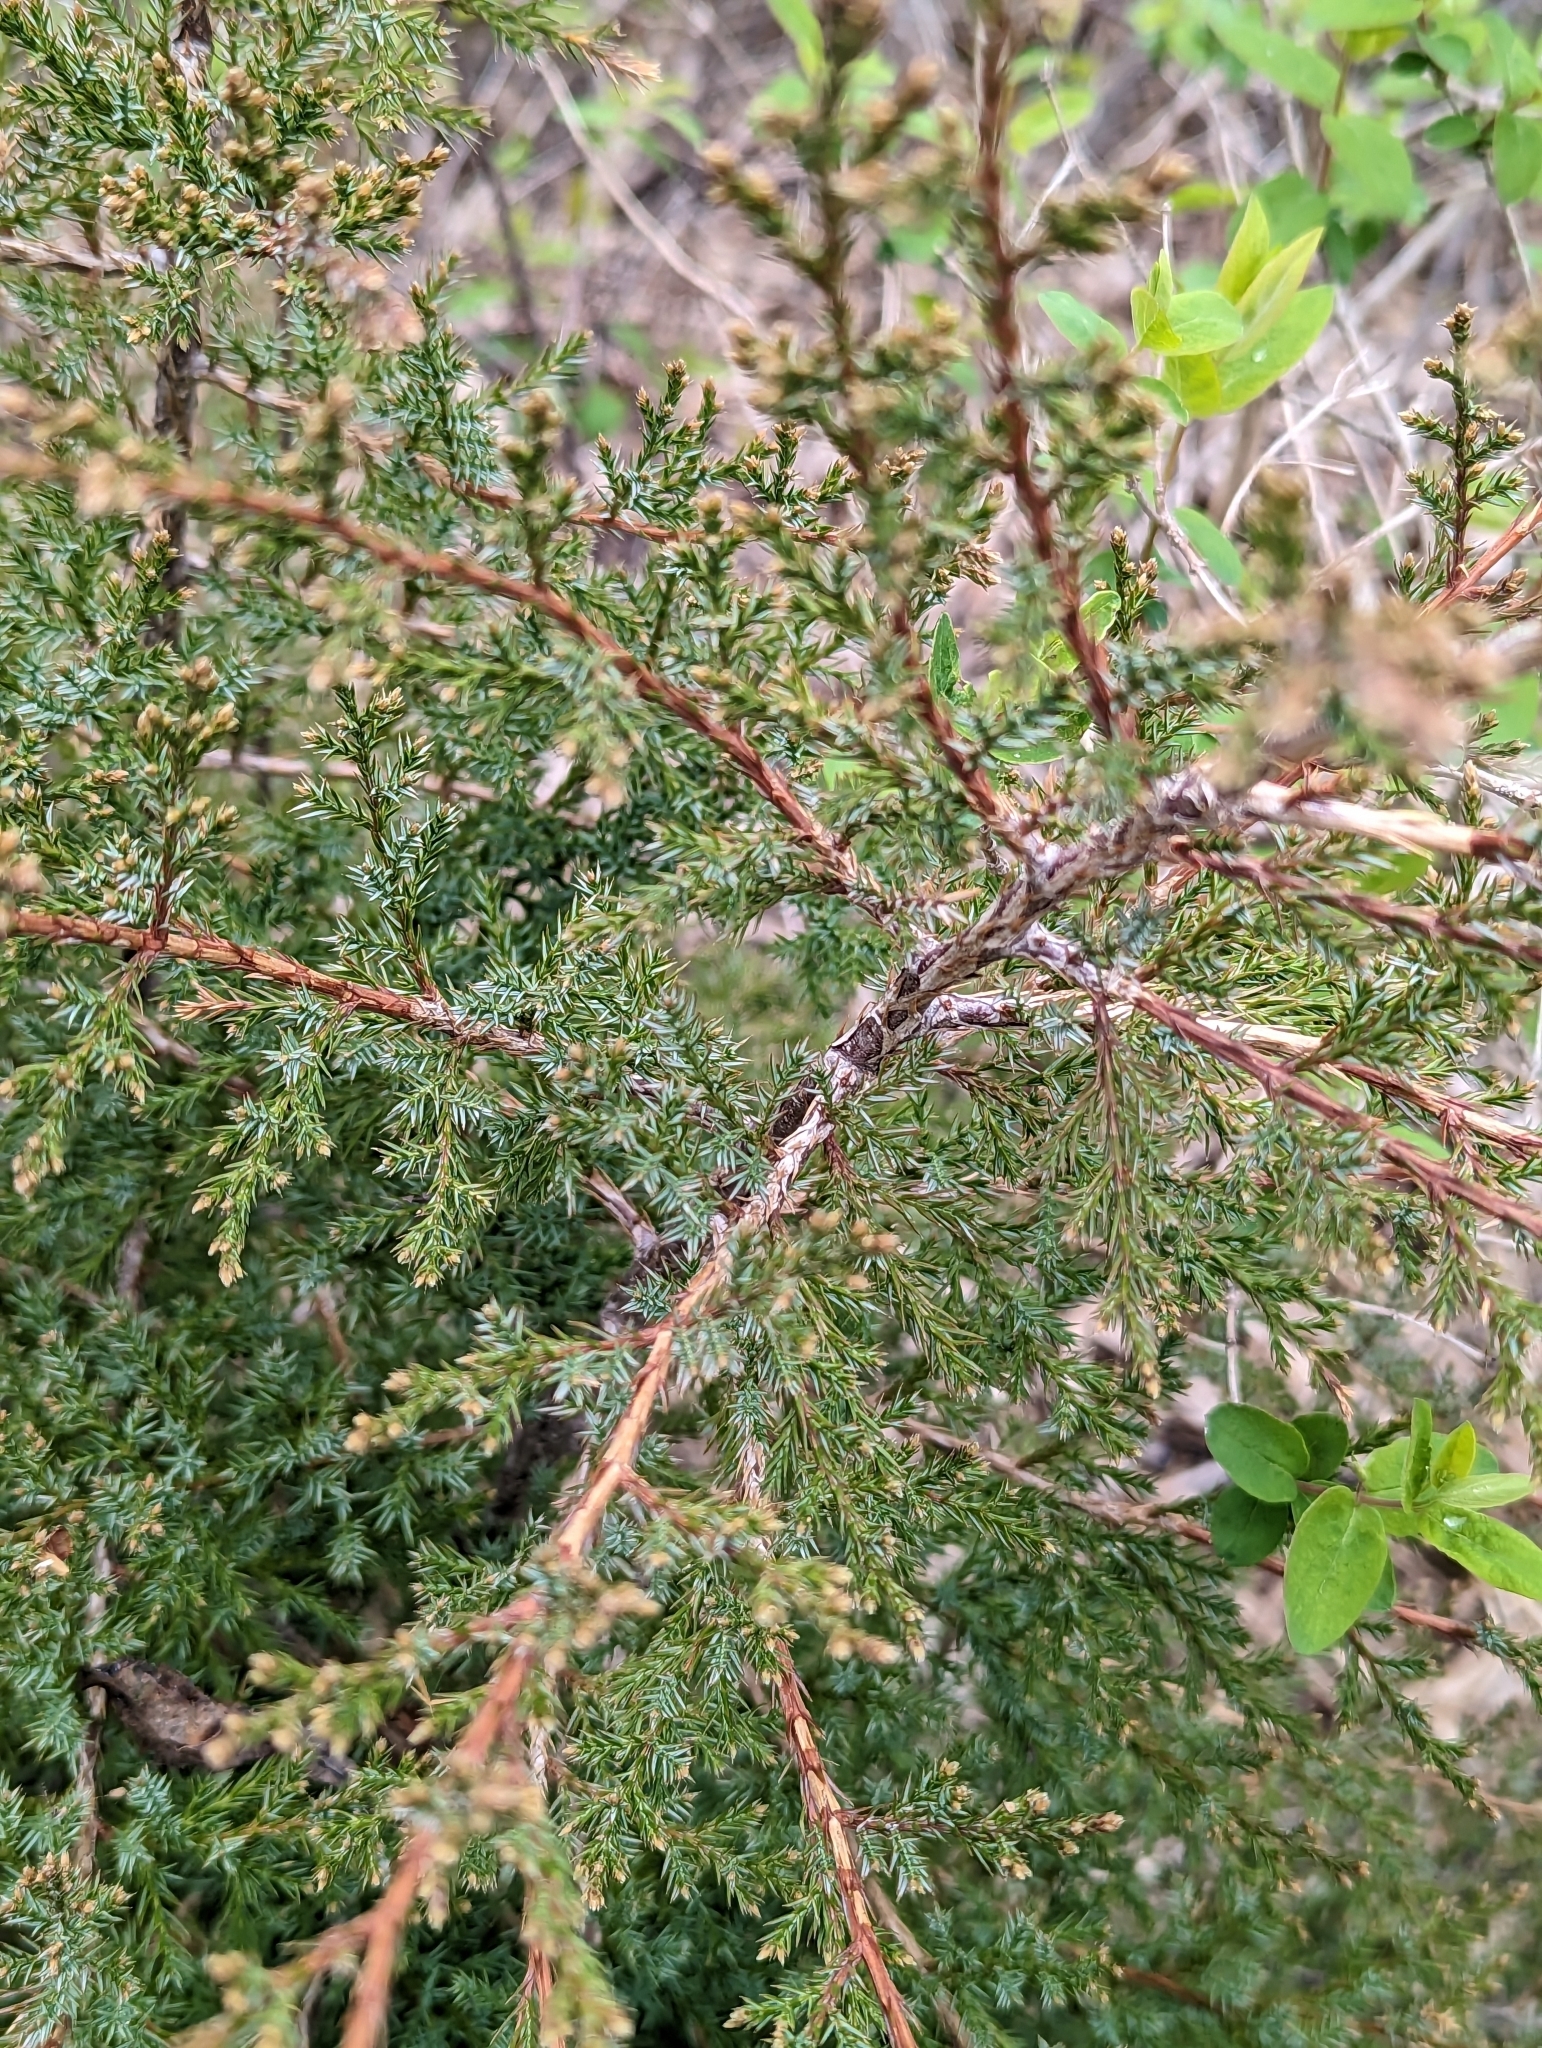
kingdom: Plantae
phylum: Tracheophyta
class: Pinopsida
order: Pinales
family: Cupressaceae
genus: Juniperus
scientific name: Juniperus virginiana
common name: Red juniper
